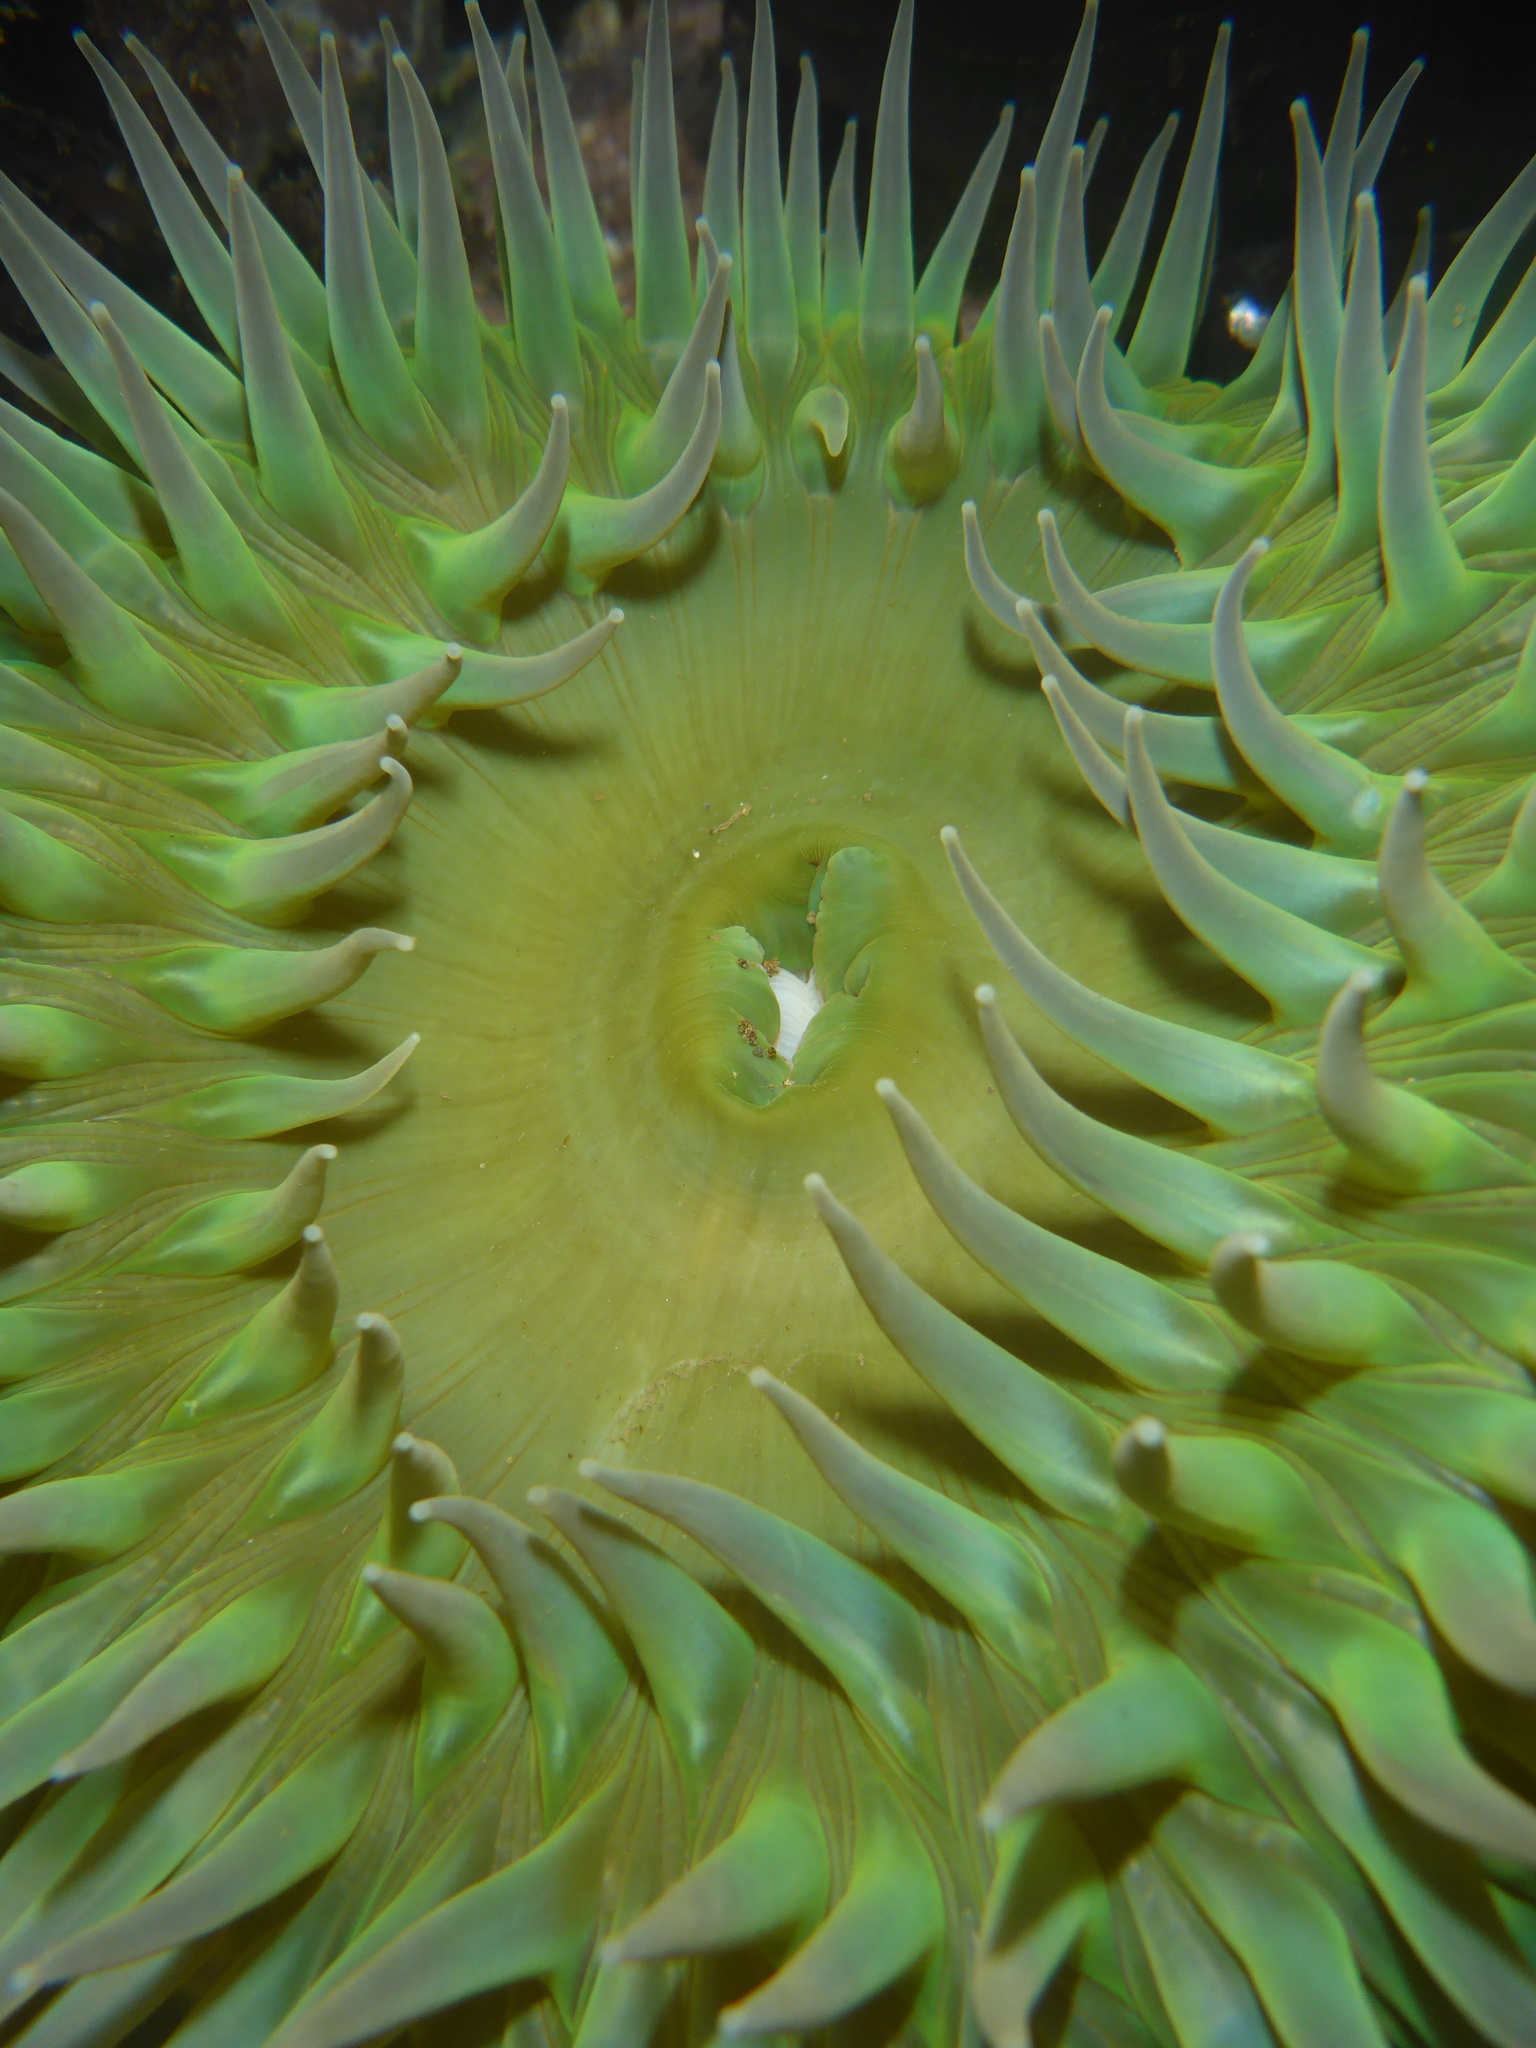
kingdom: Animalia
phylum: Cnidaria
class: Anthozoa
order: Actiniaria
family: Actiniidae
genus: Anthopleura
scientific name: Anthopleura xanthogrammica
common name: Giant green anemone
